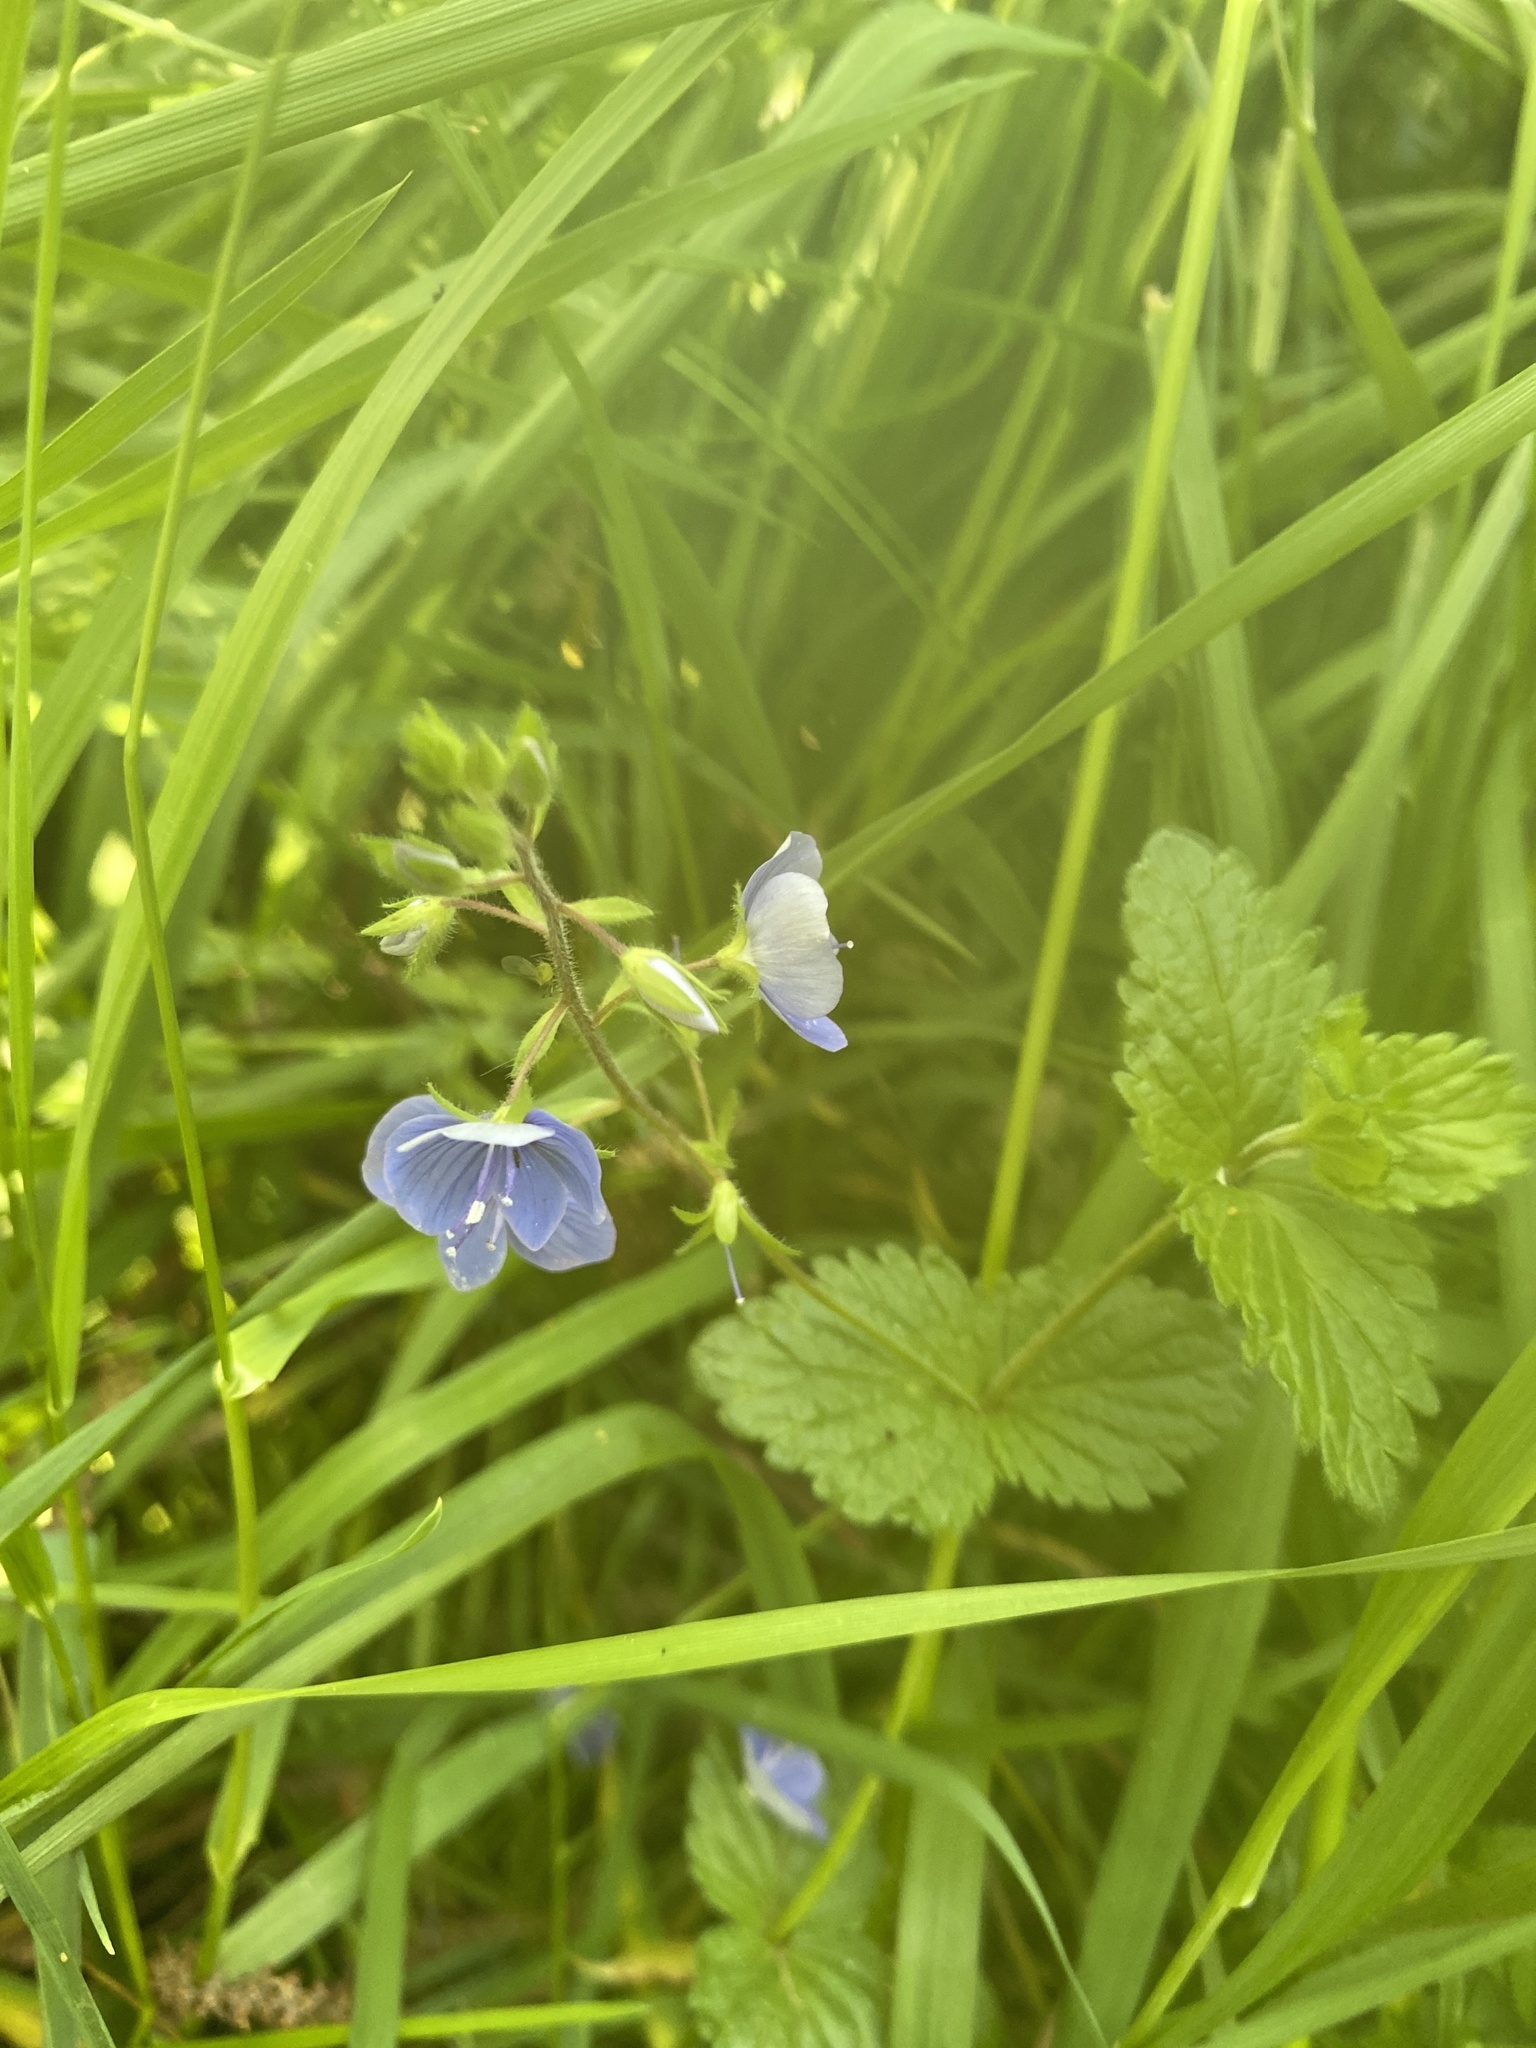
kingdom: Plantae
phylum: Tracheophyta
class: Magnoliopsida
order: Lamiales
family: Plantaginaceae
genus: Veronica
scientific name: Veronica chamaedrys
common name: Germander speedwell
